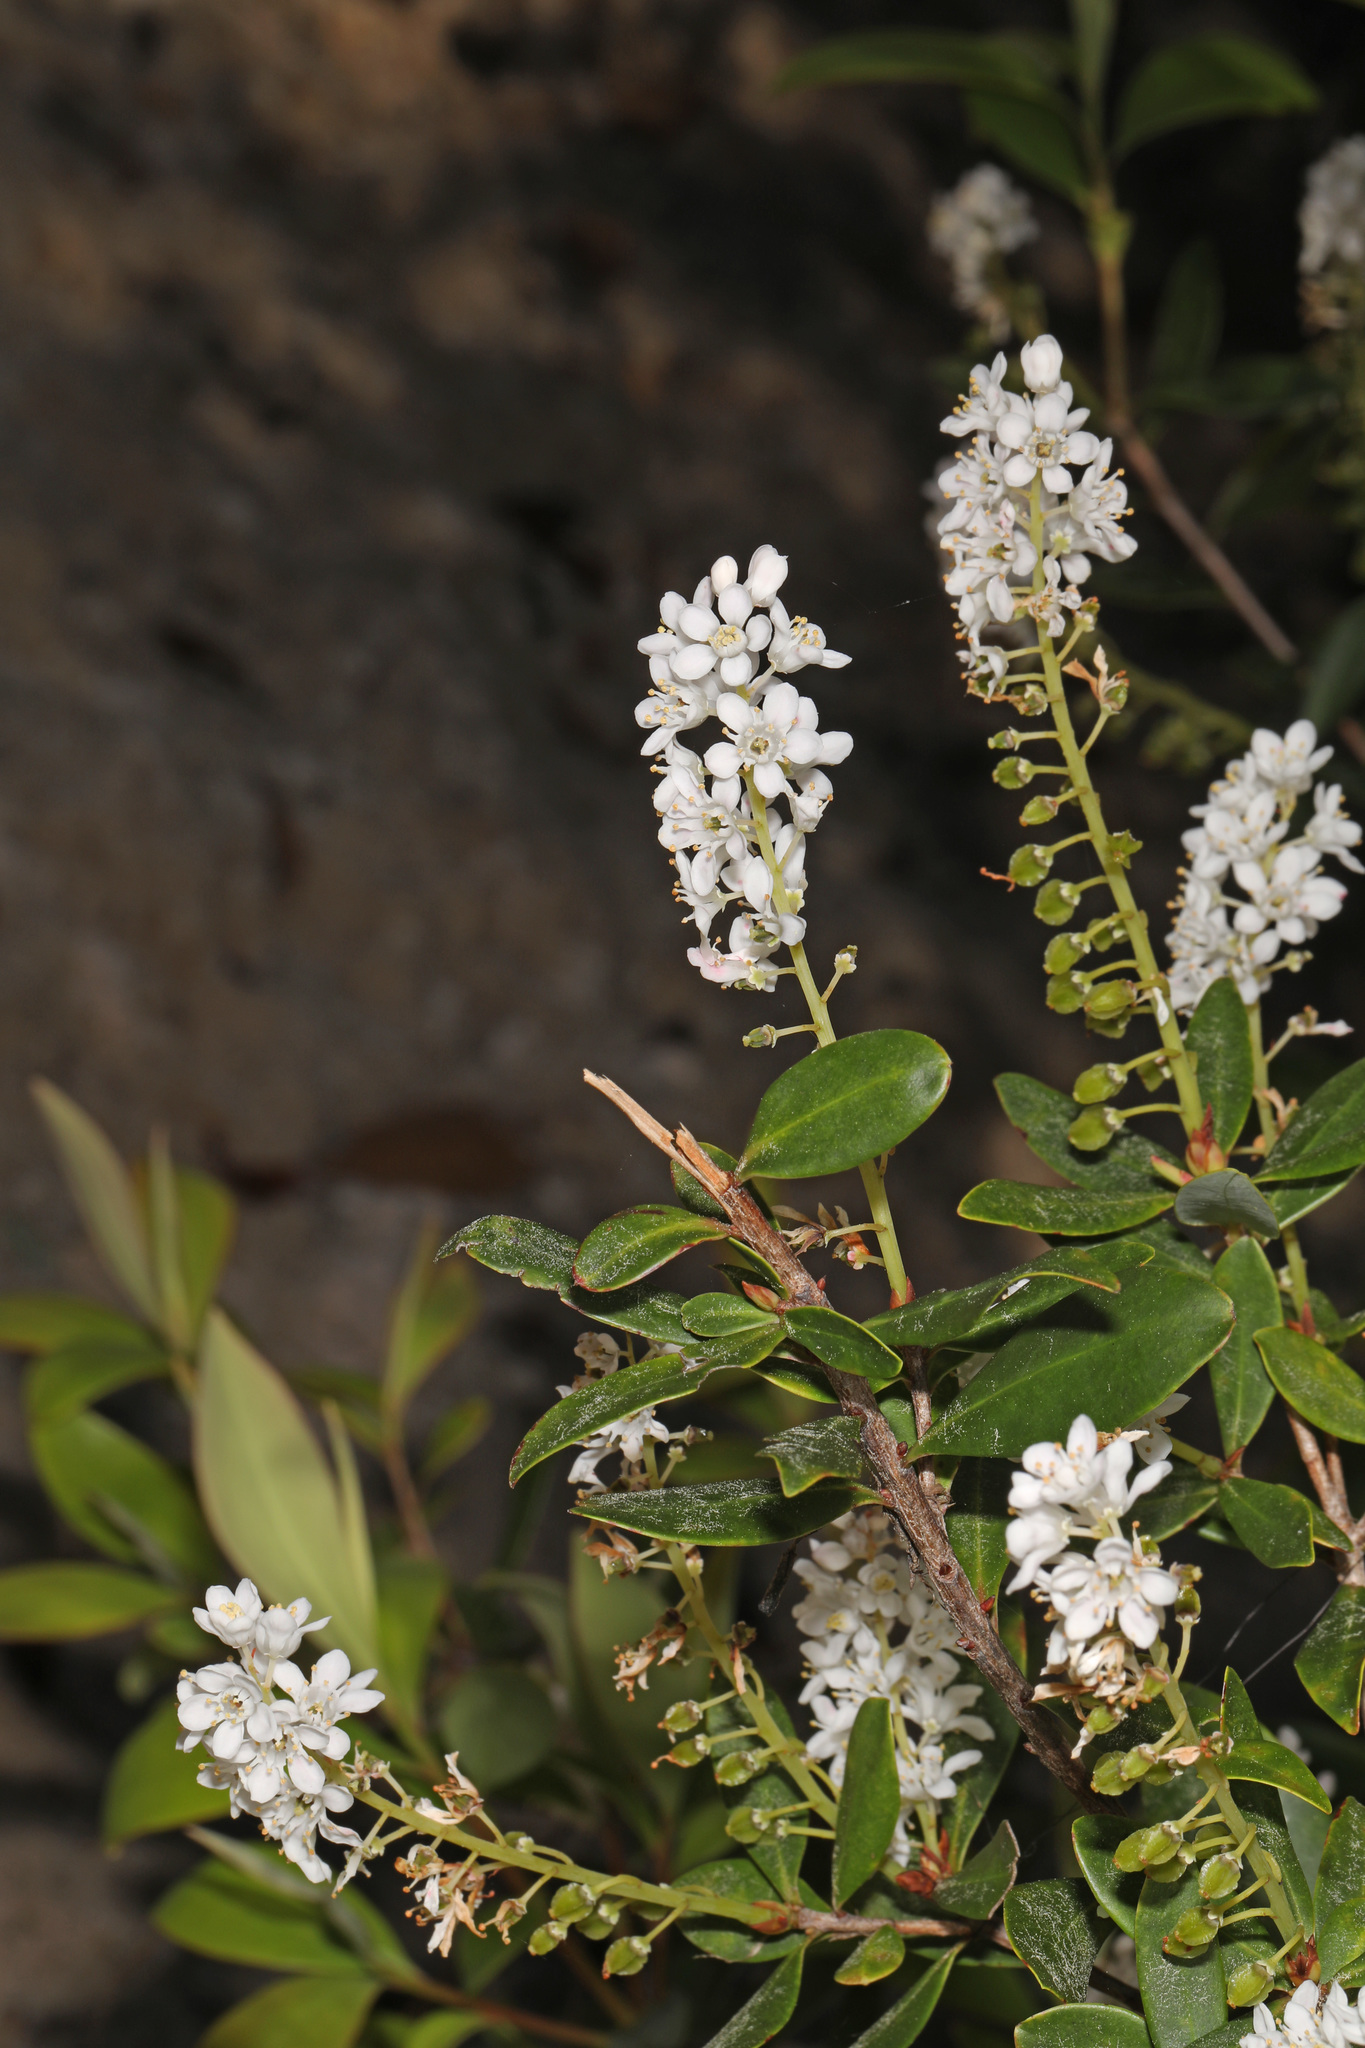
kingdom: Plantae
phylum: Tracheophyta
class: Magnoliopsida
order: Ericales
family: Cyrillaceae
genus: Cliftonia
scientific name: Cliftonia monophylla
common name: Titi
